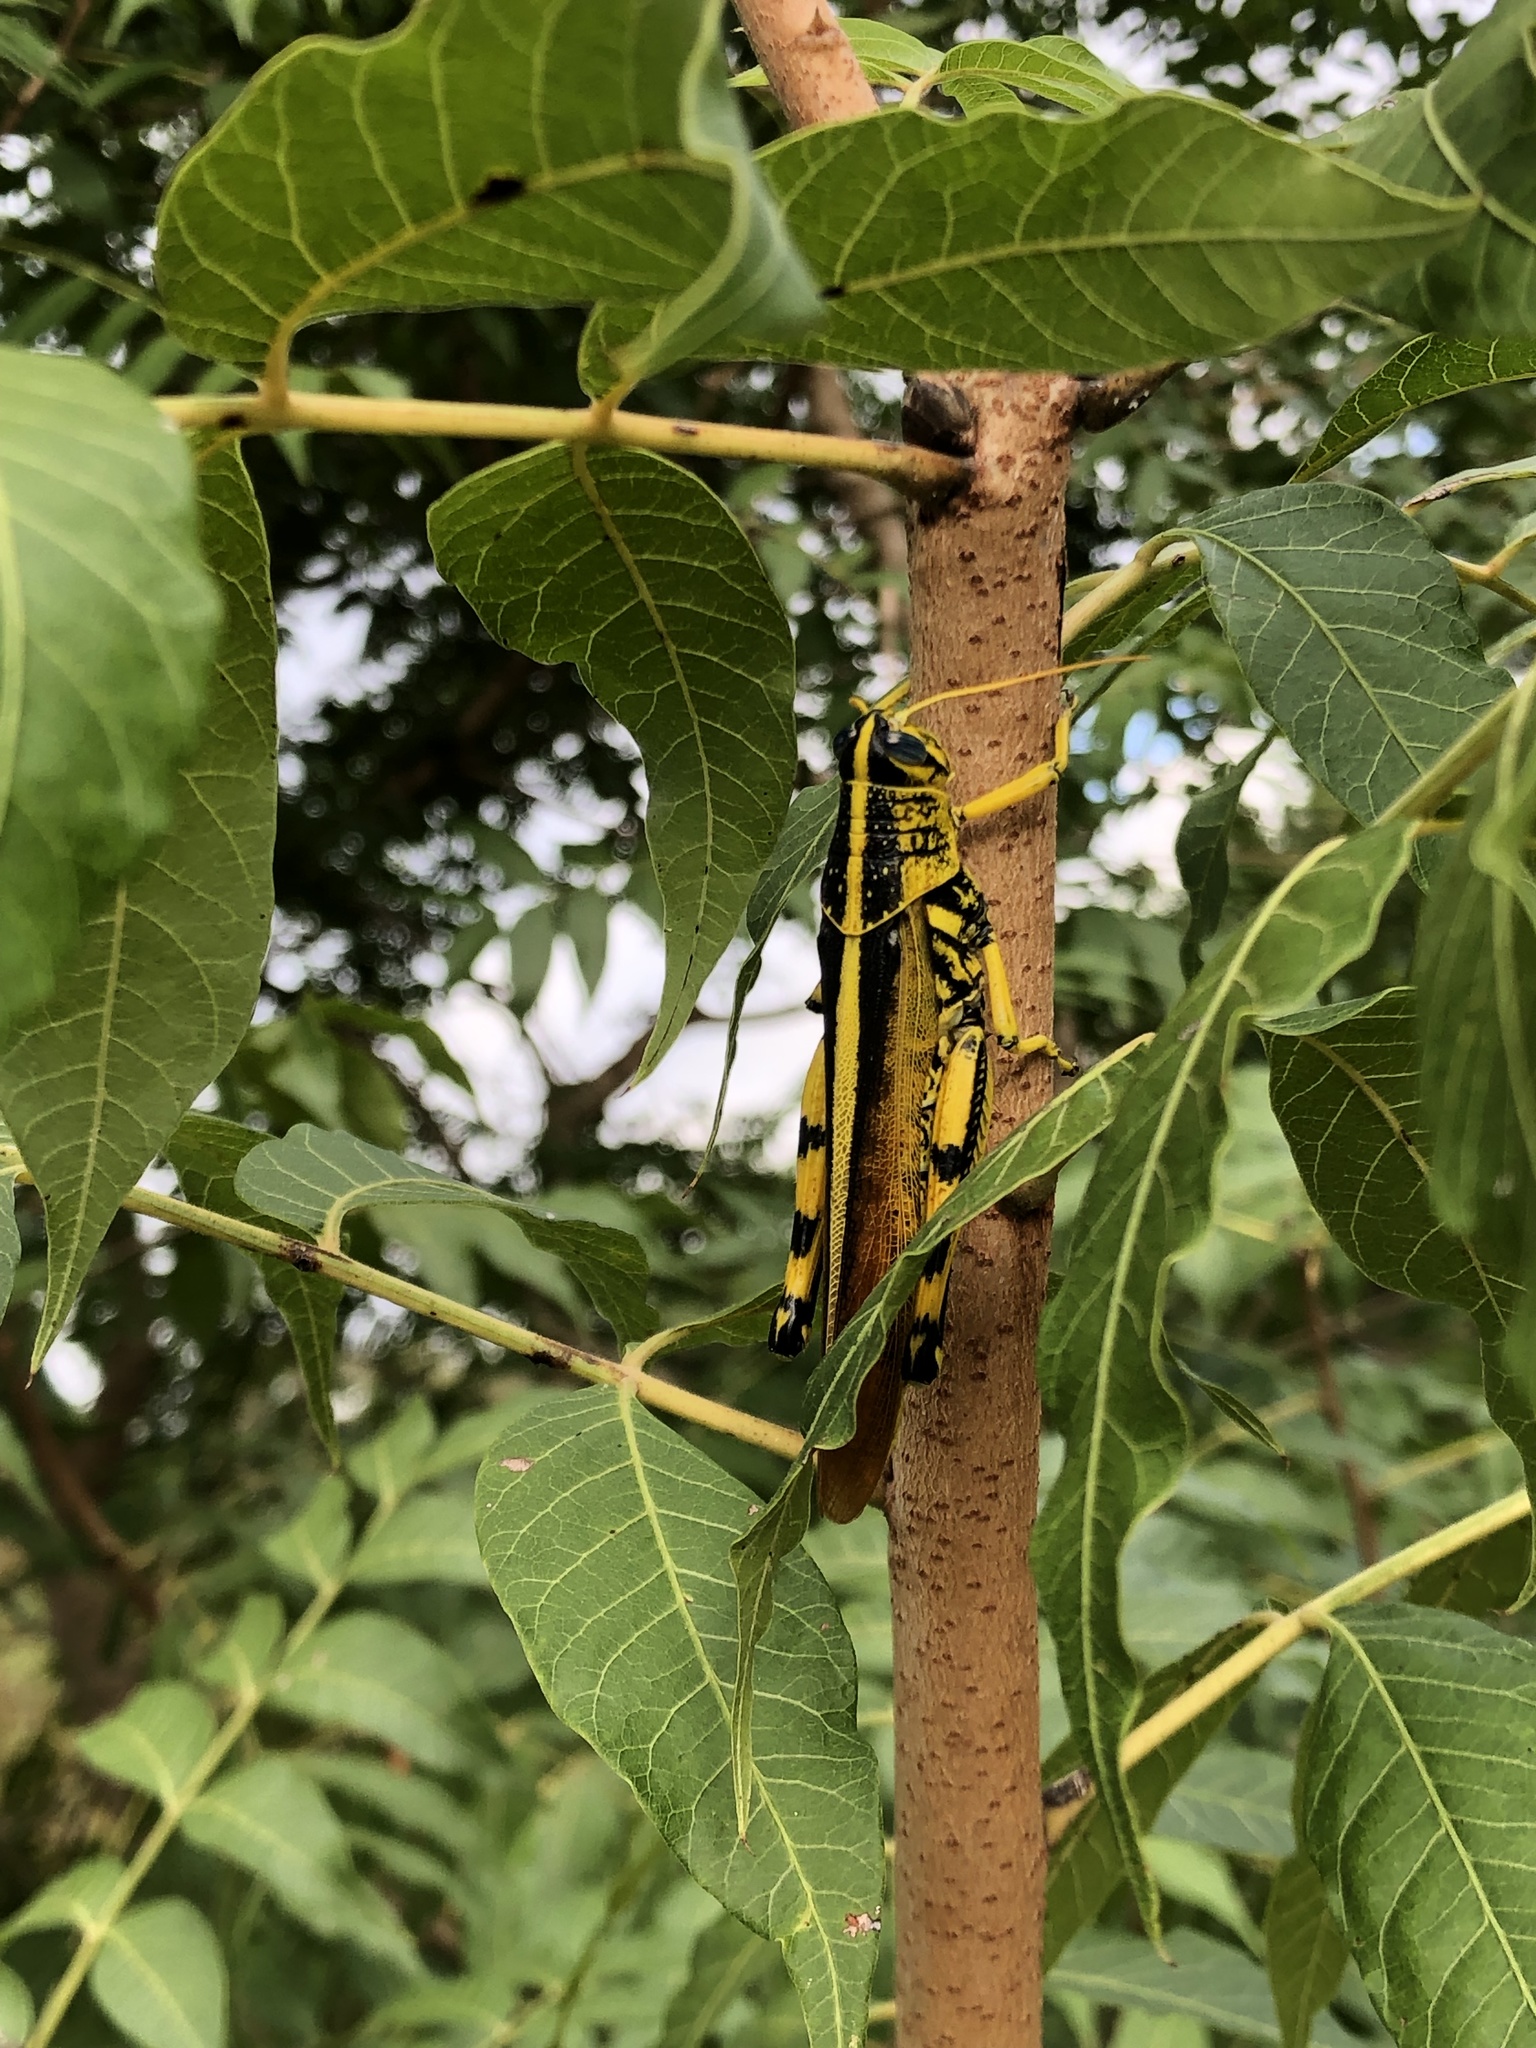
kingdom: Animalia
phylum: Arthropoda
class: Insecta
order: Orthoptera
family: Acrididae
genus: Schistocerca
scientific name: Schistocerca lineata
